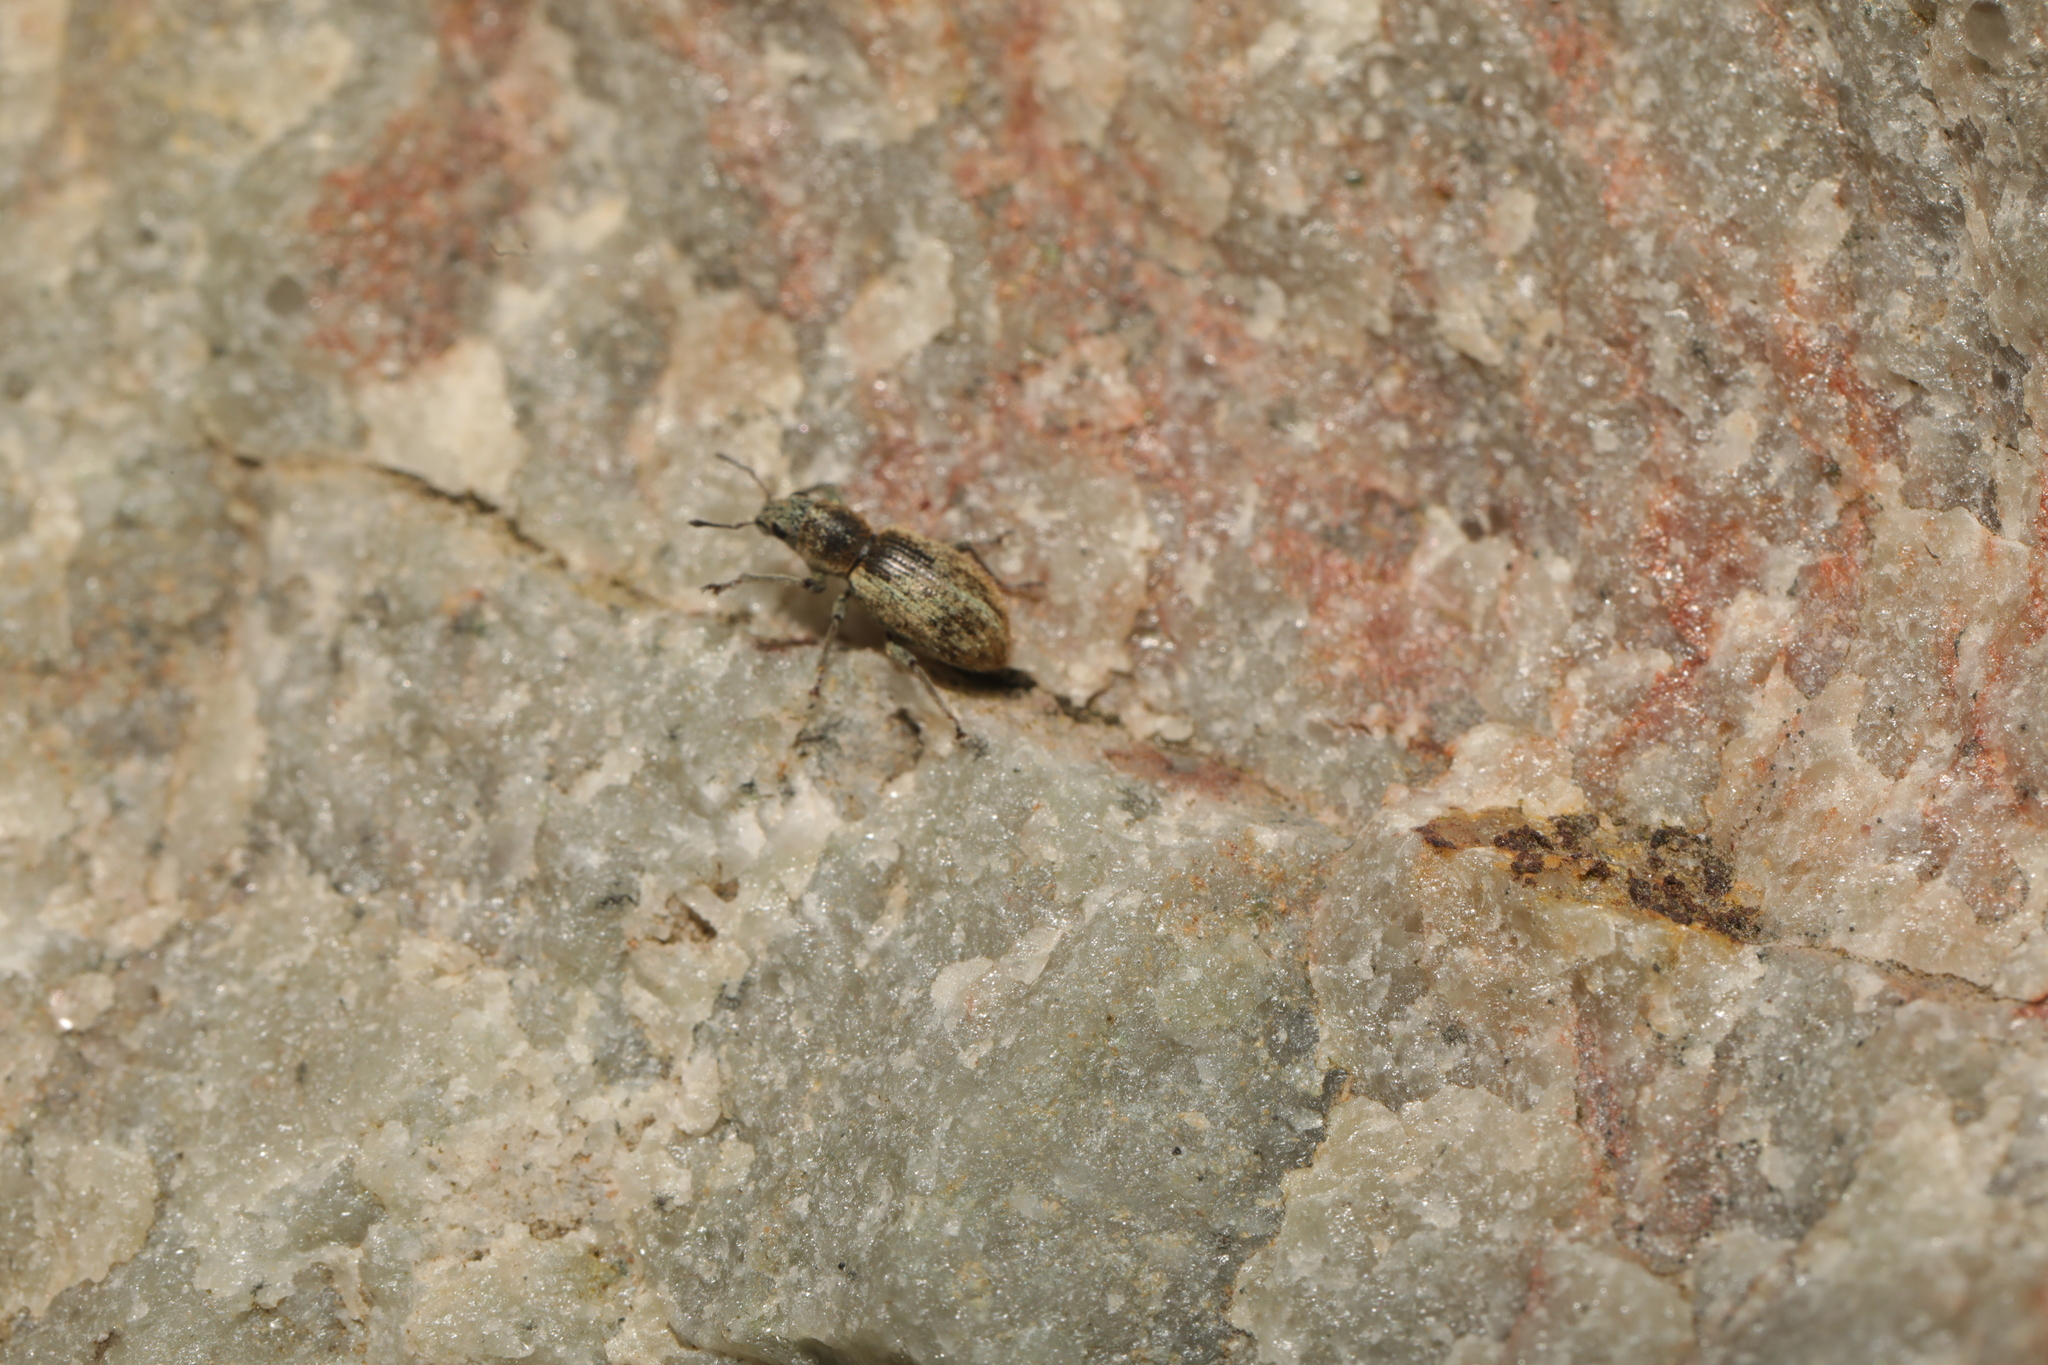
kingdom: Animalia
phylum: Arthropoda
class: Insecta
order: Coleoptera
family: Curculionidae
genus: Andrion
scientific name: Andrion regensteinense
